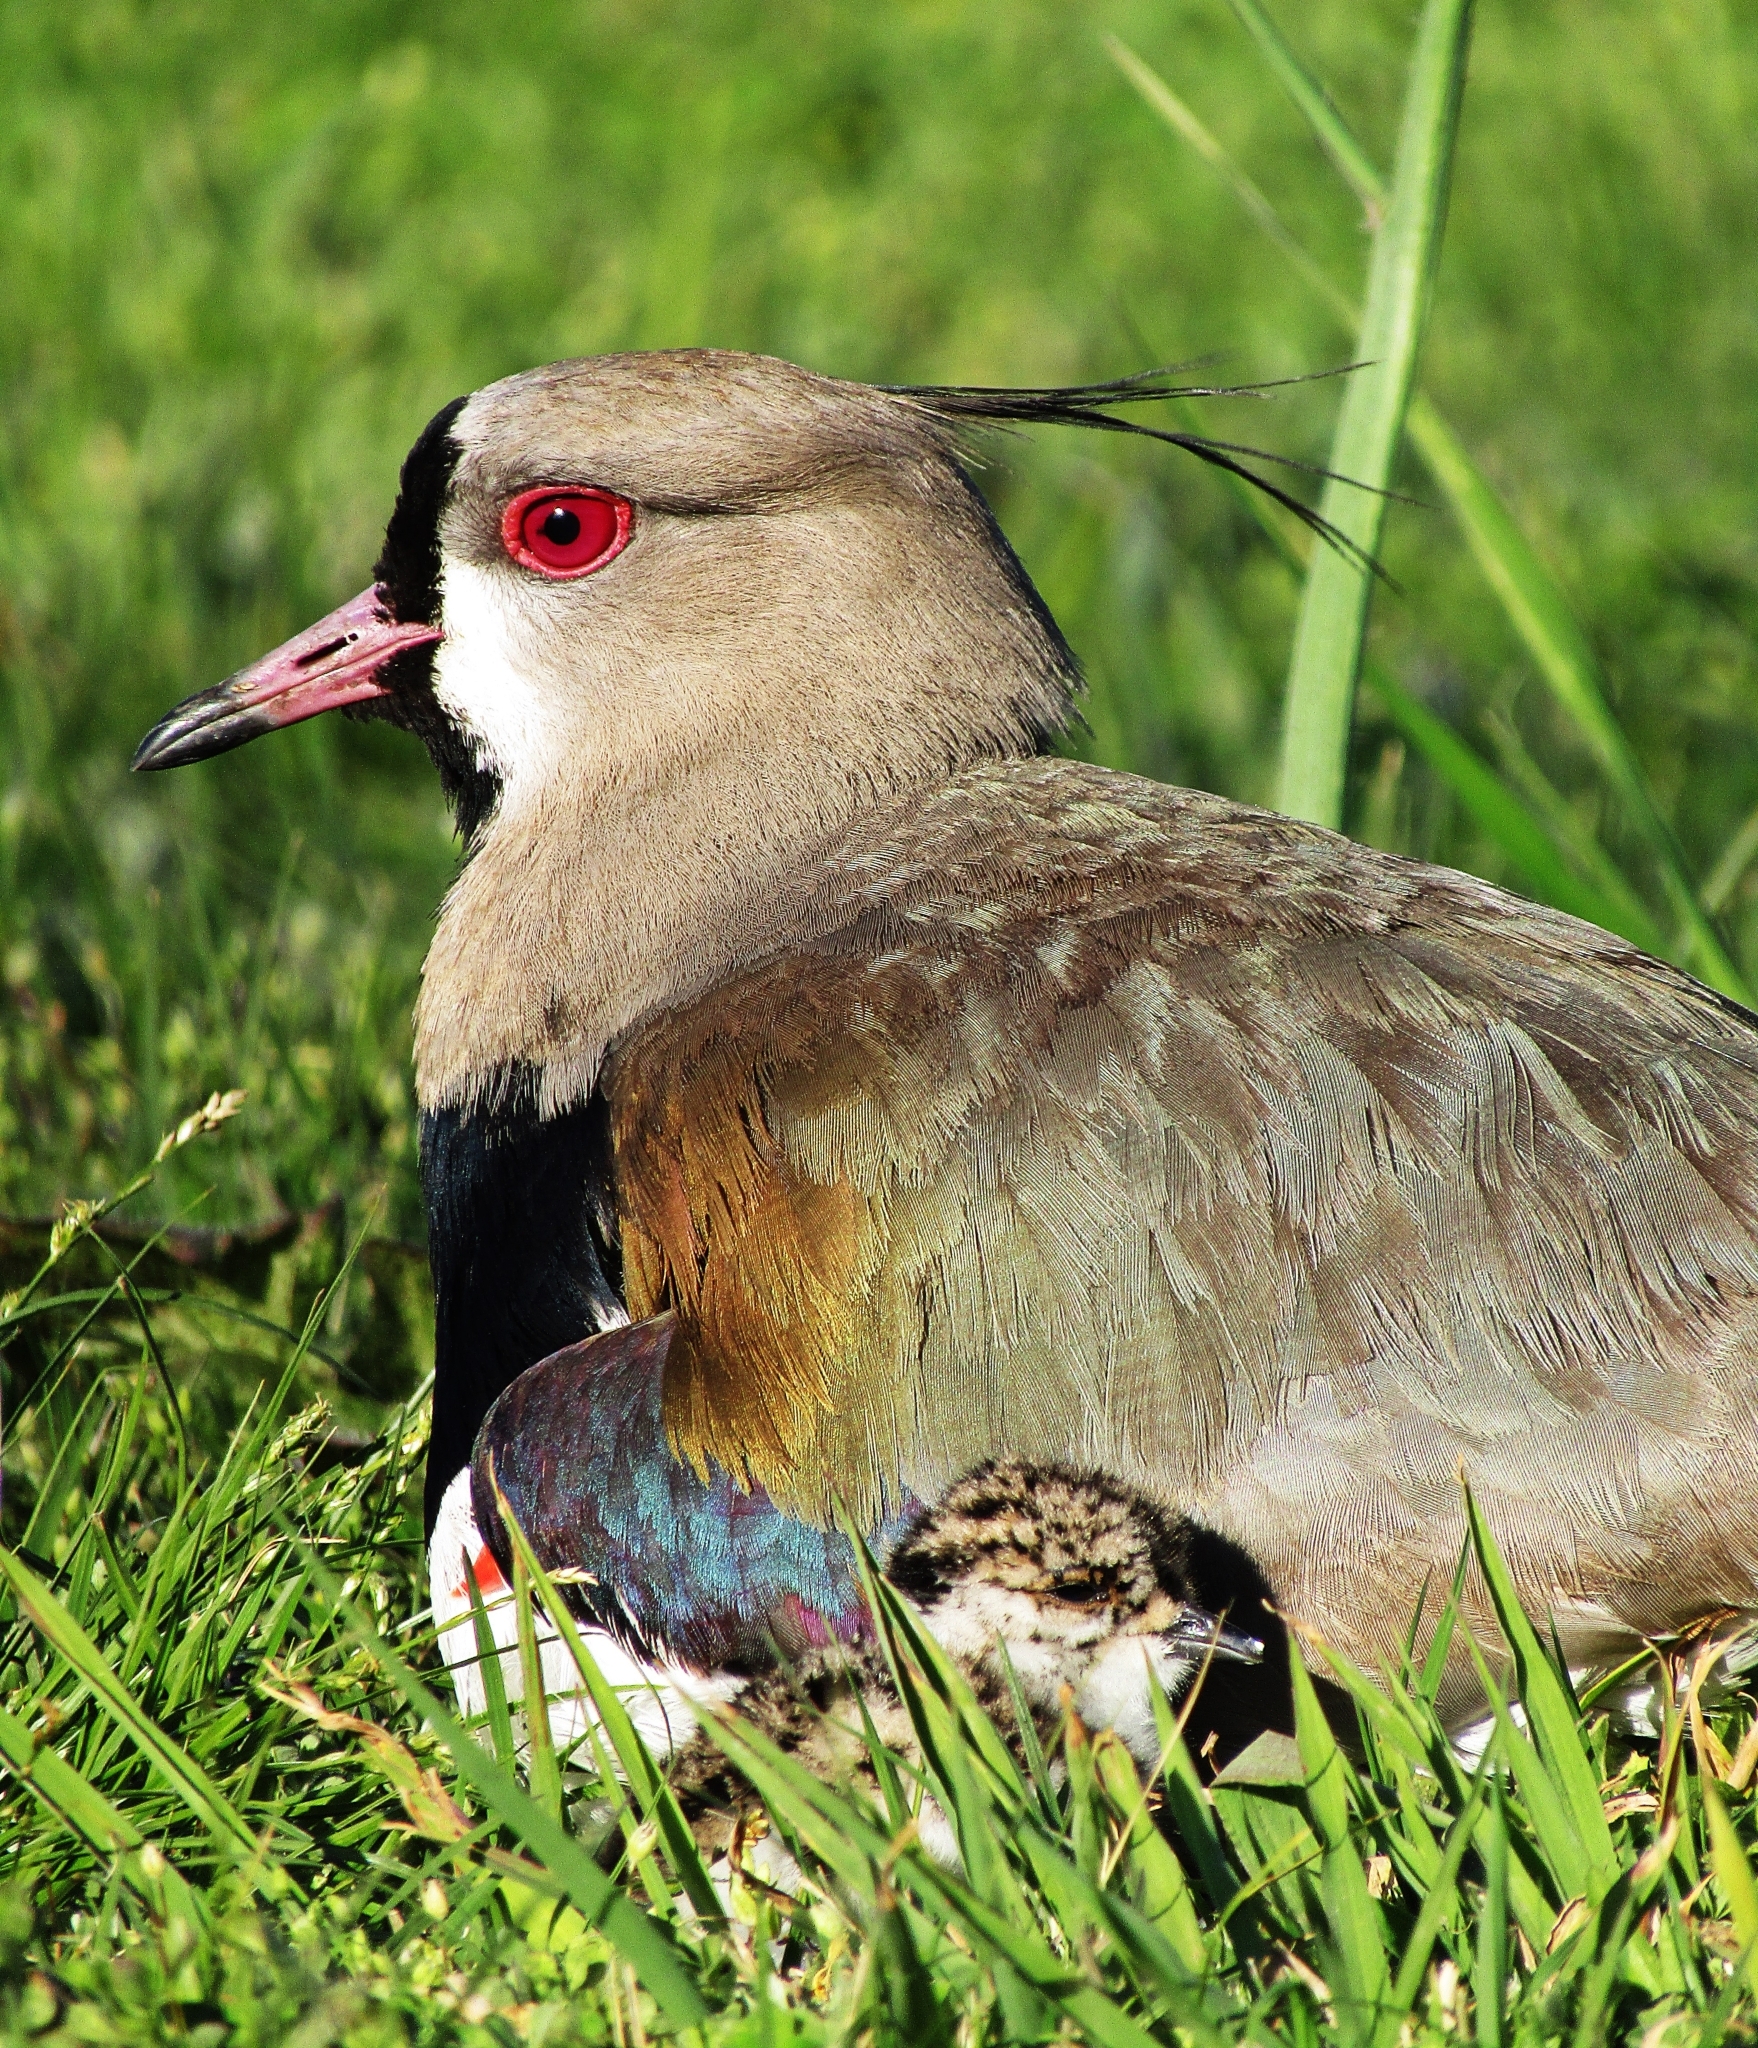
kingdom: Animalia
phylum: Chordata
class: Aves
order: Charadriiformes
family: Charadriidae
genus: Vanellus
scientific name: Vanellus chilensis
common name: Southern lapwing
